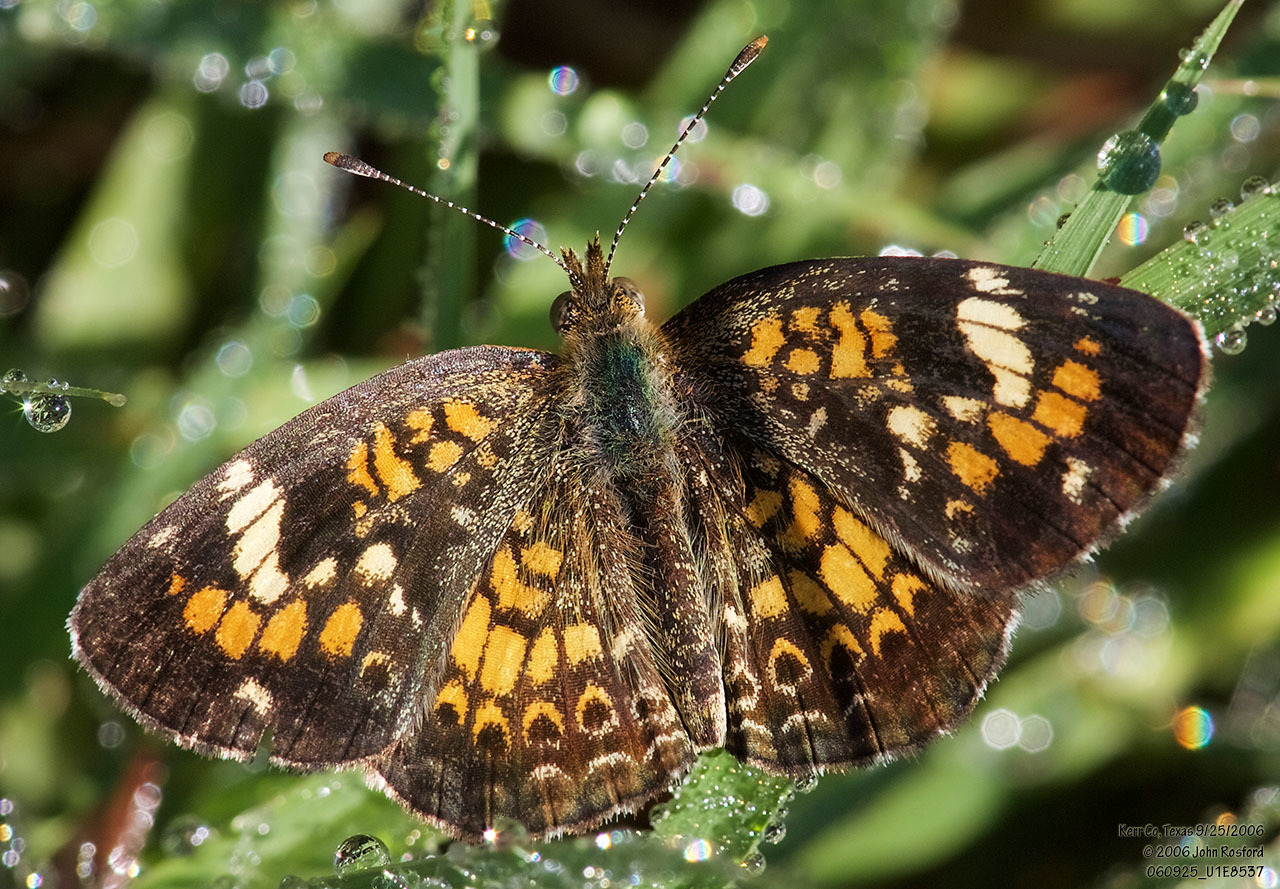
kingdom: Animalia
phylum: Arthropoda
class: Insecta
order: Lepidoptera
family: Nymphalidae
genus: Phyciodes
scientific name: Phyciodes phaon
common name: Phaon crescent
